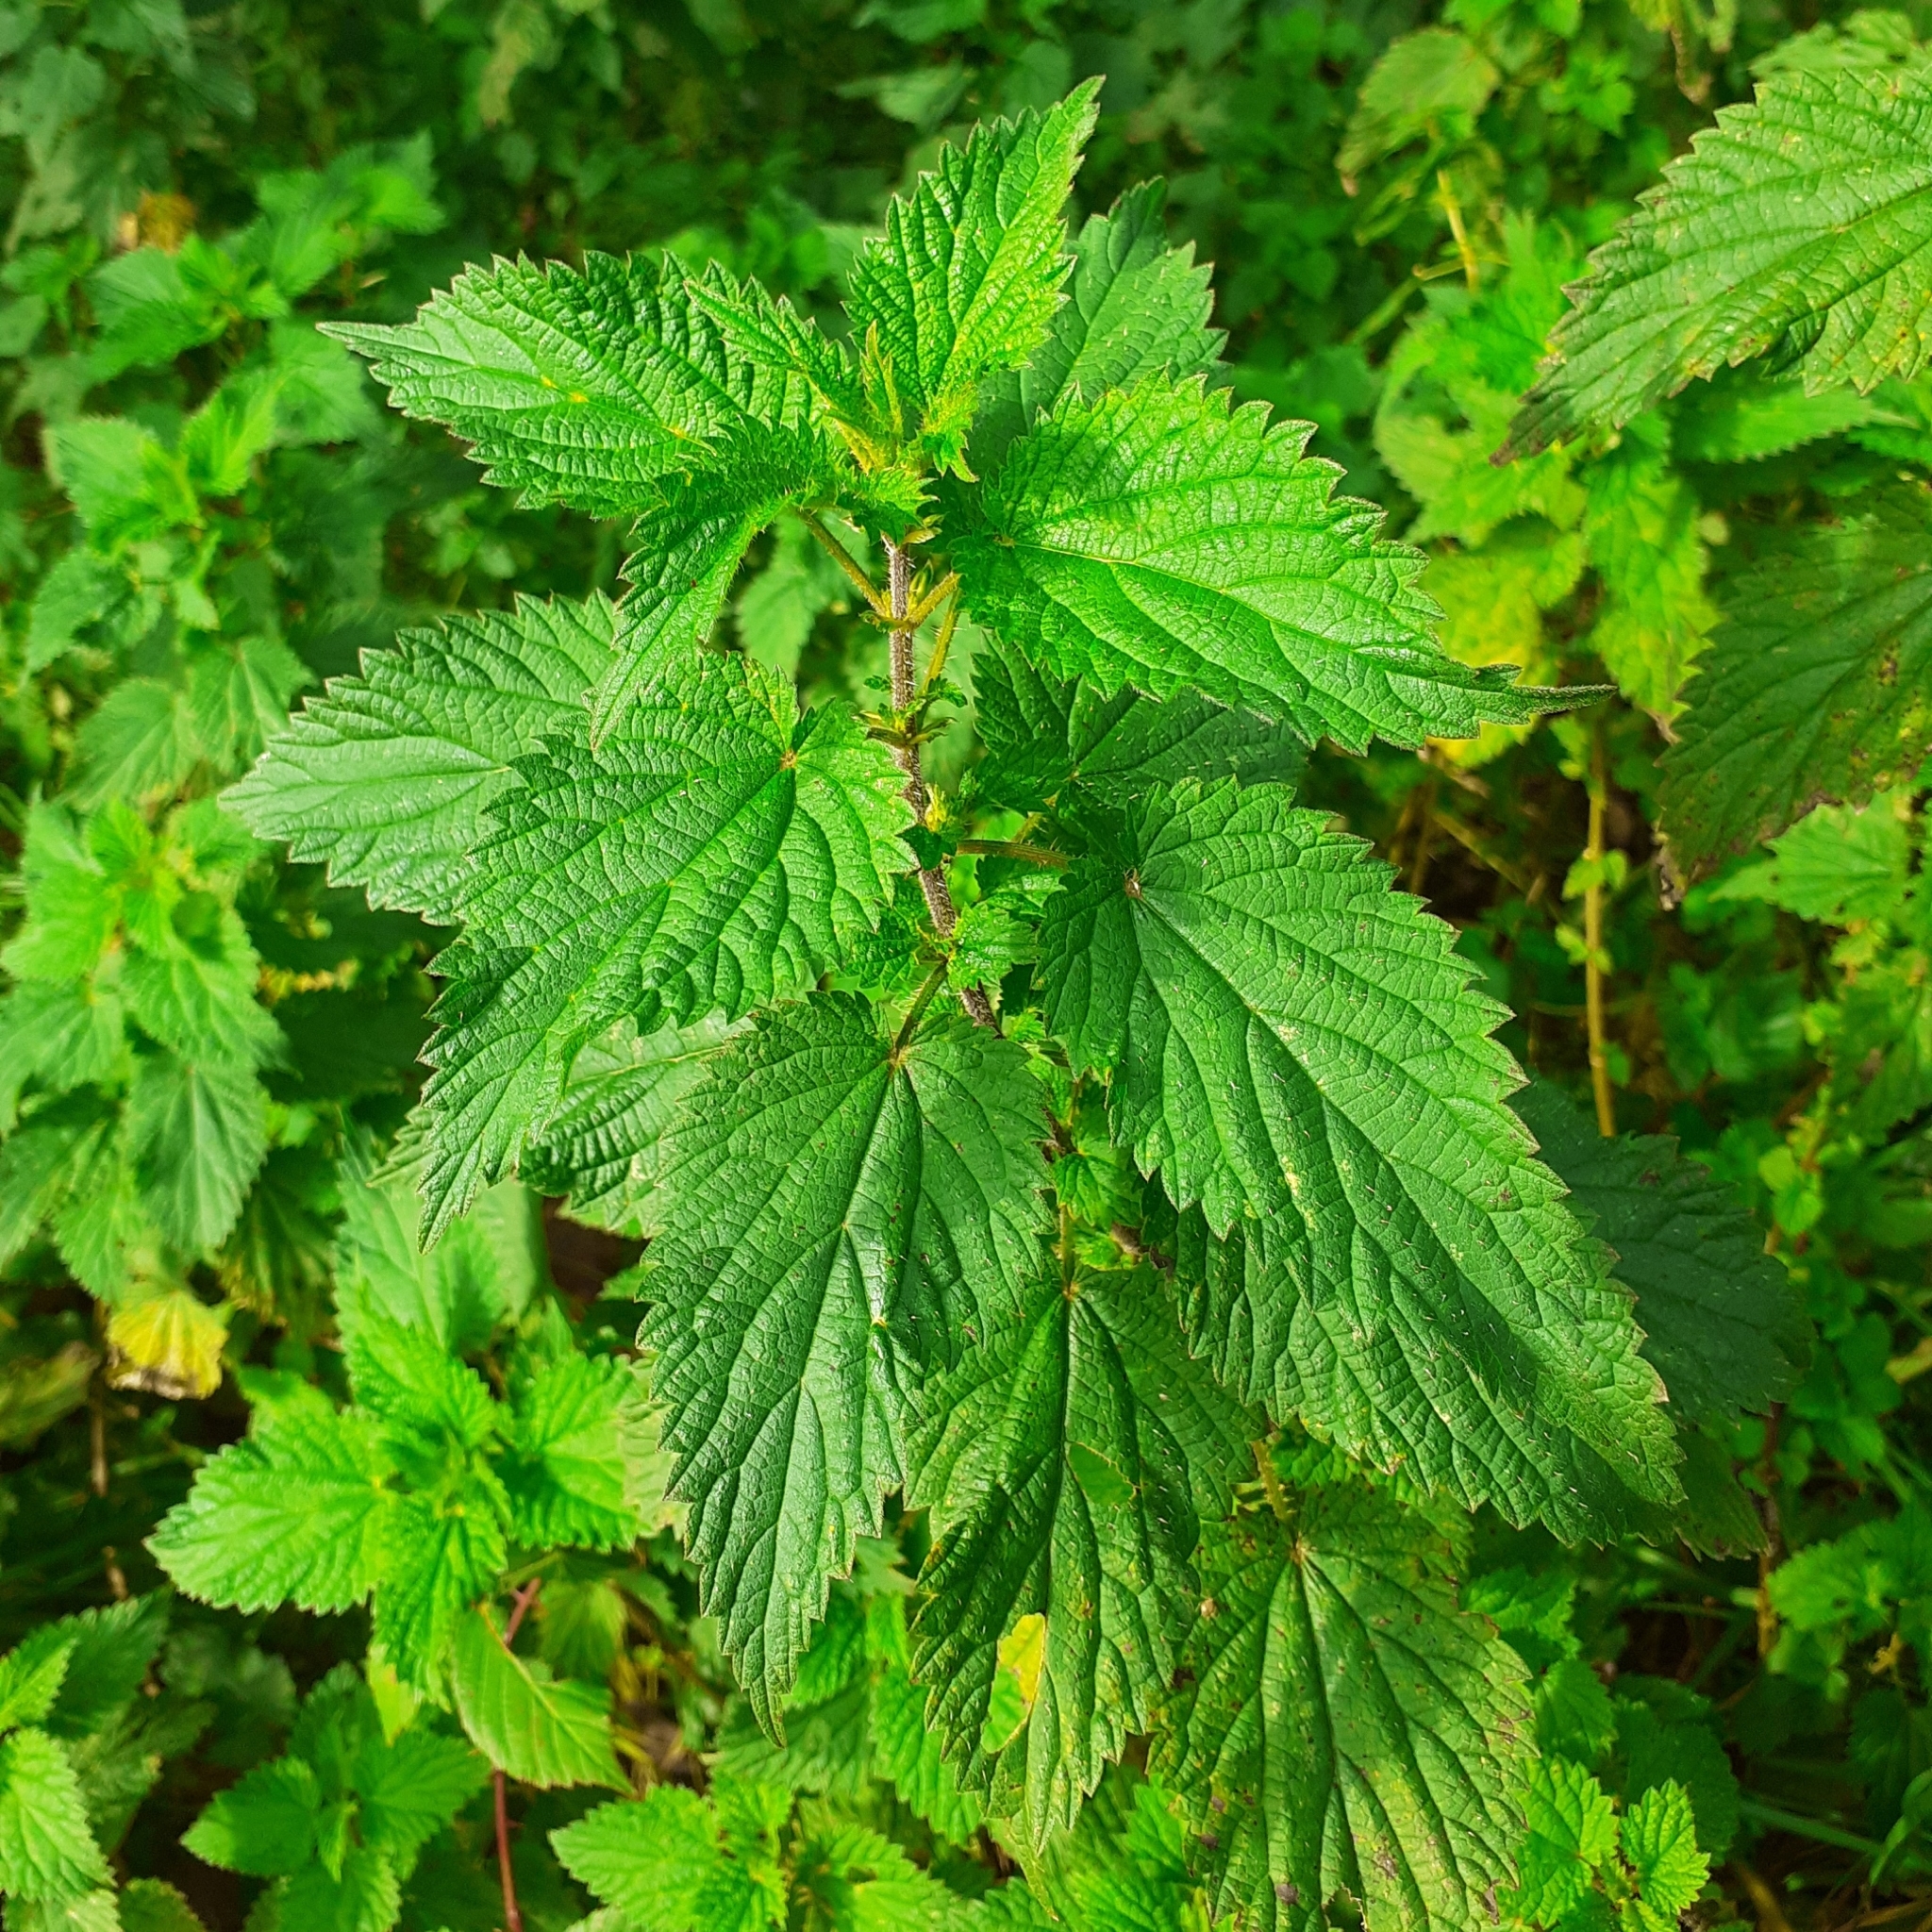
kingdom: Plantae
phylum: Tracheophyta
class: Magnoliopsida
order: Rosales
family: Urticaceae
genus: Urtica
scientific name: Urtica dioica
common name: Common nettle
